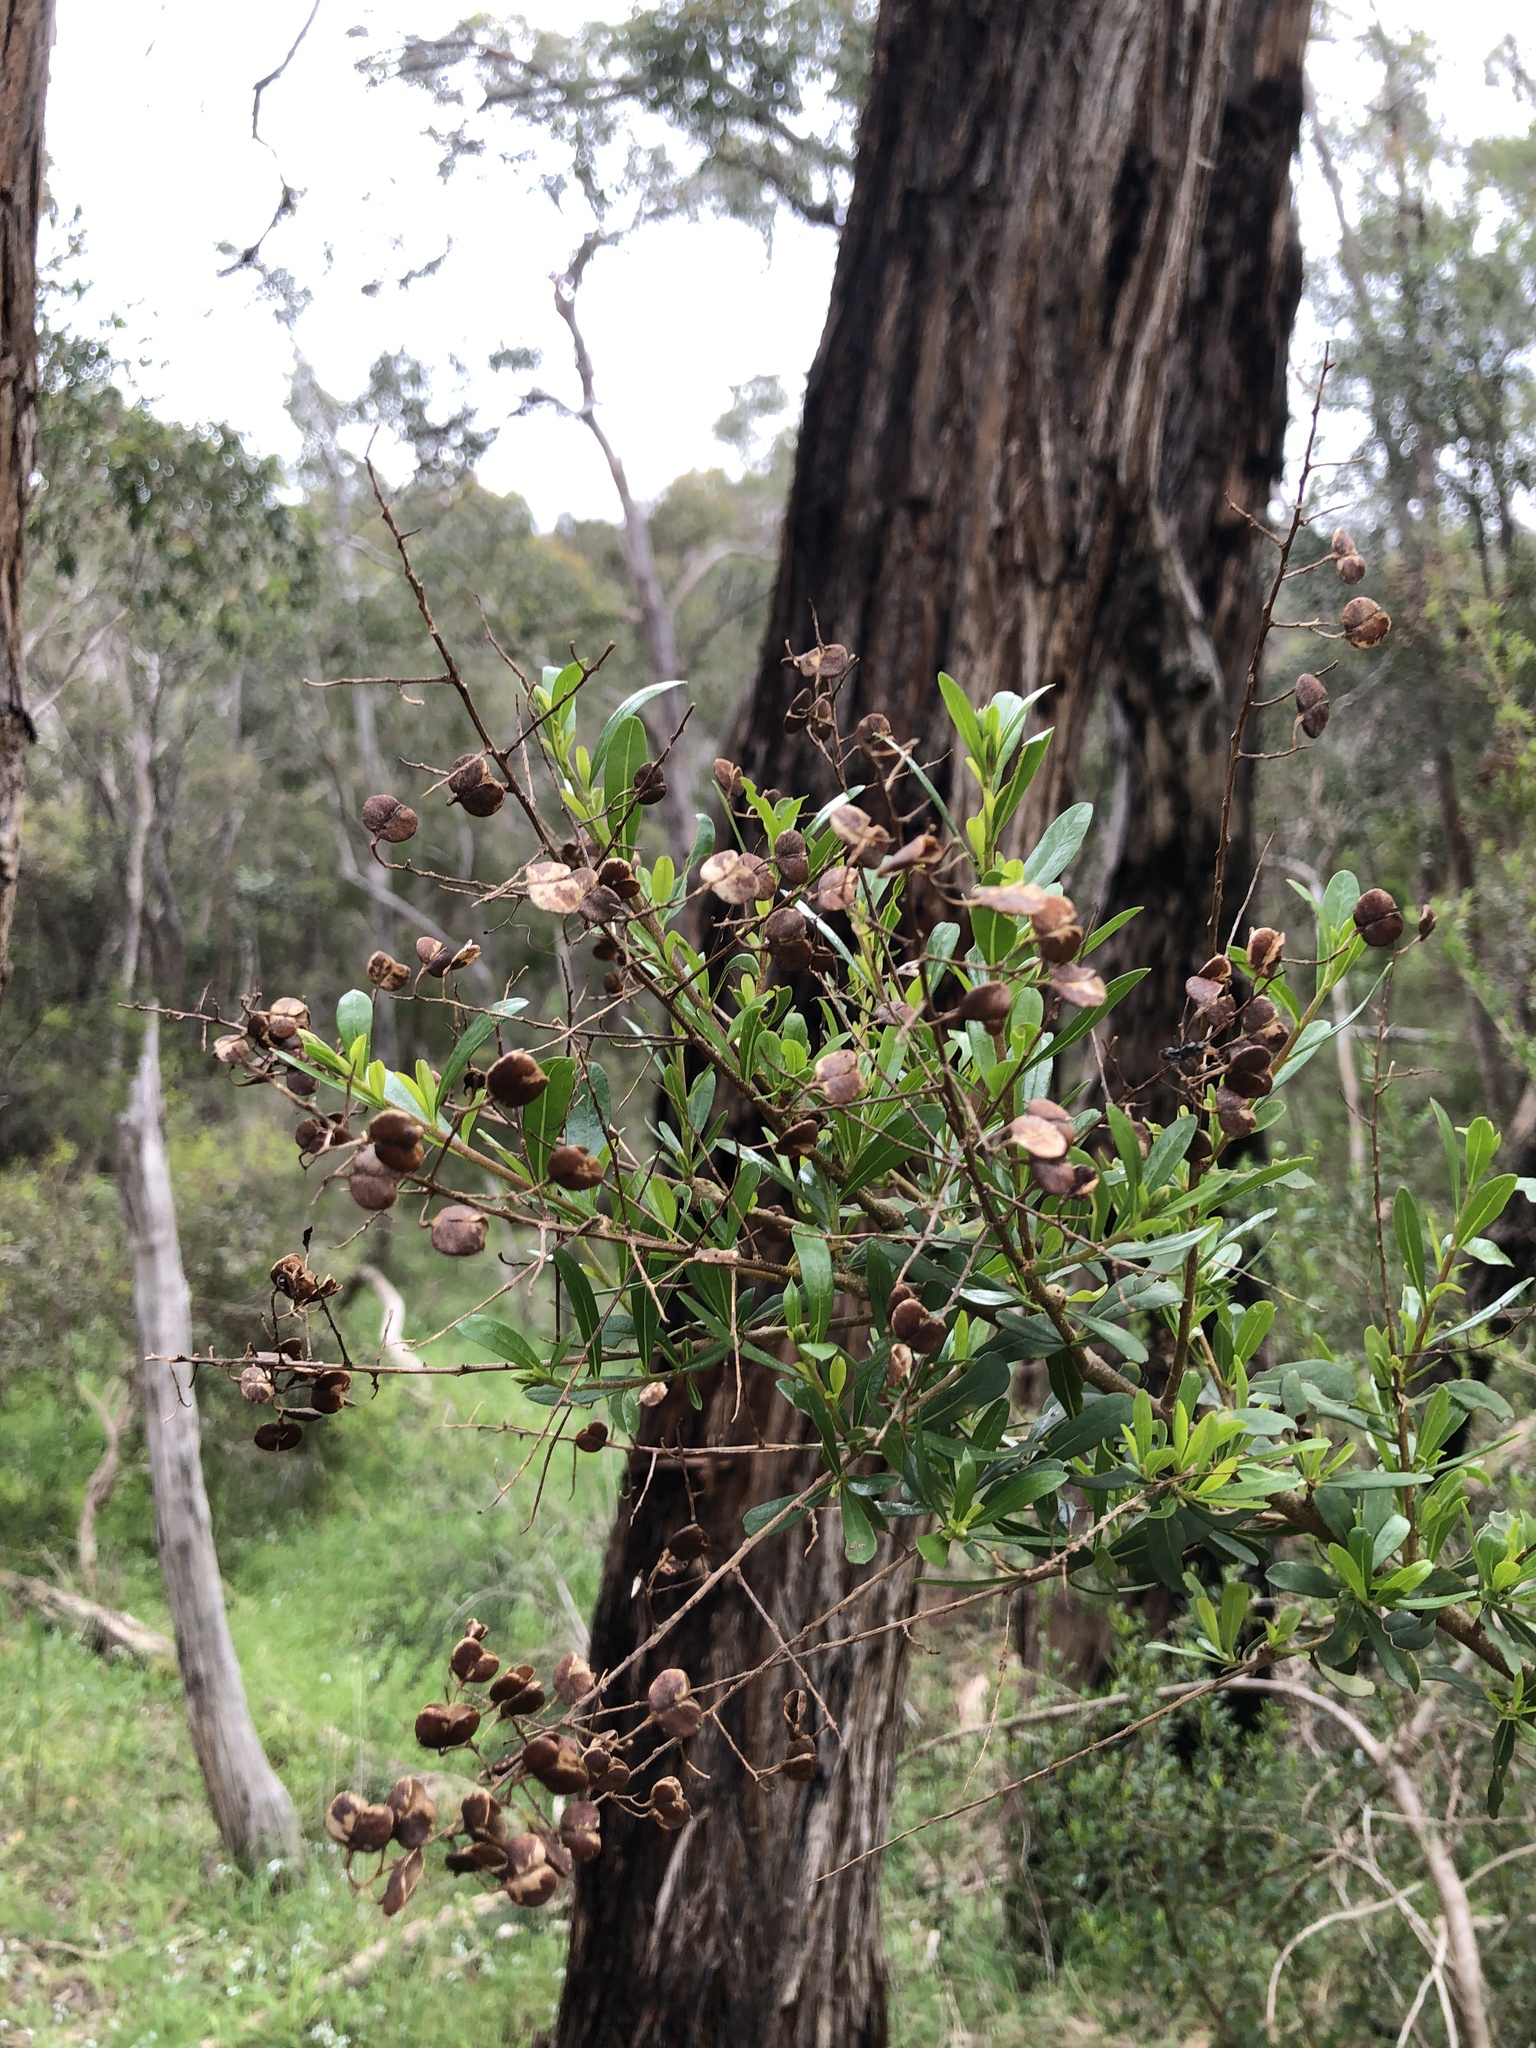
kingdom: Plantae
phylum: Tracheophyta
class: Magnoliopsida
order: Apiales
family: Pittosporaceae
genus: Bursaria
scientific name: Bursaria spinosa
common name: Australian blackthorn
